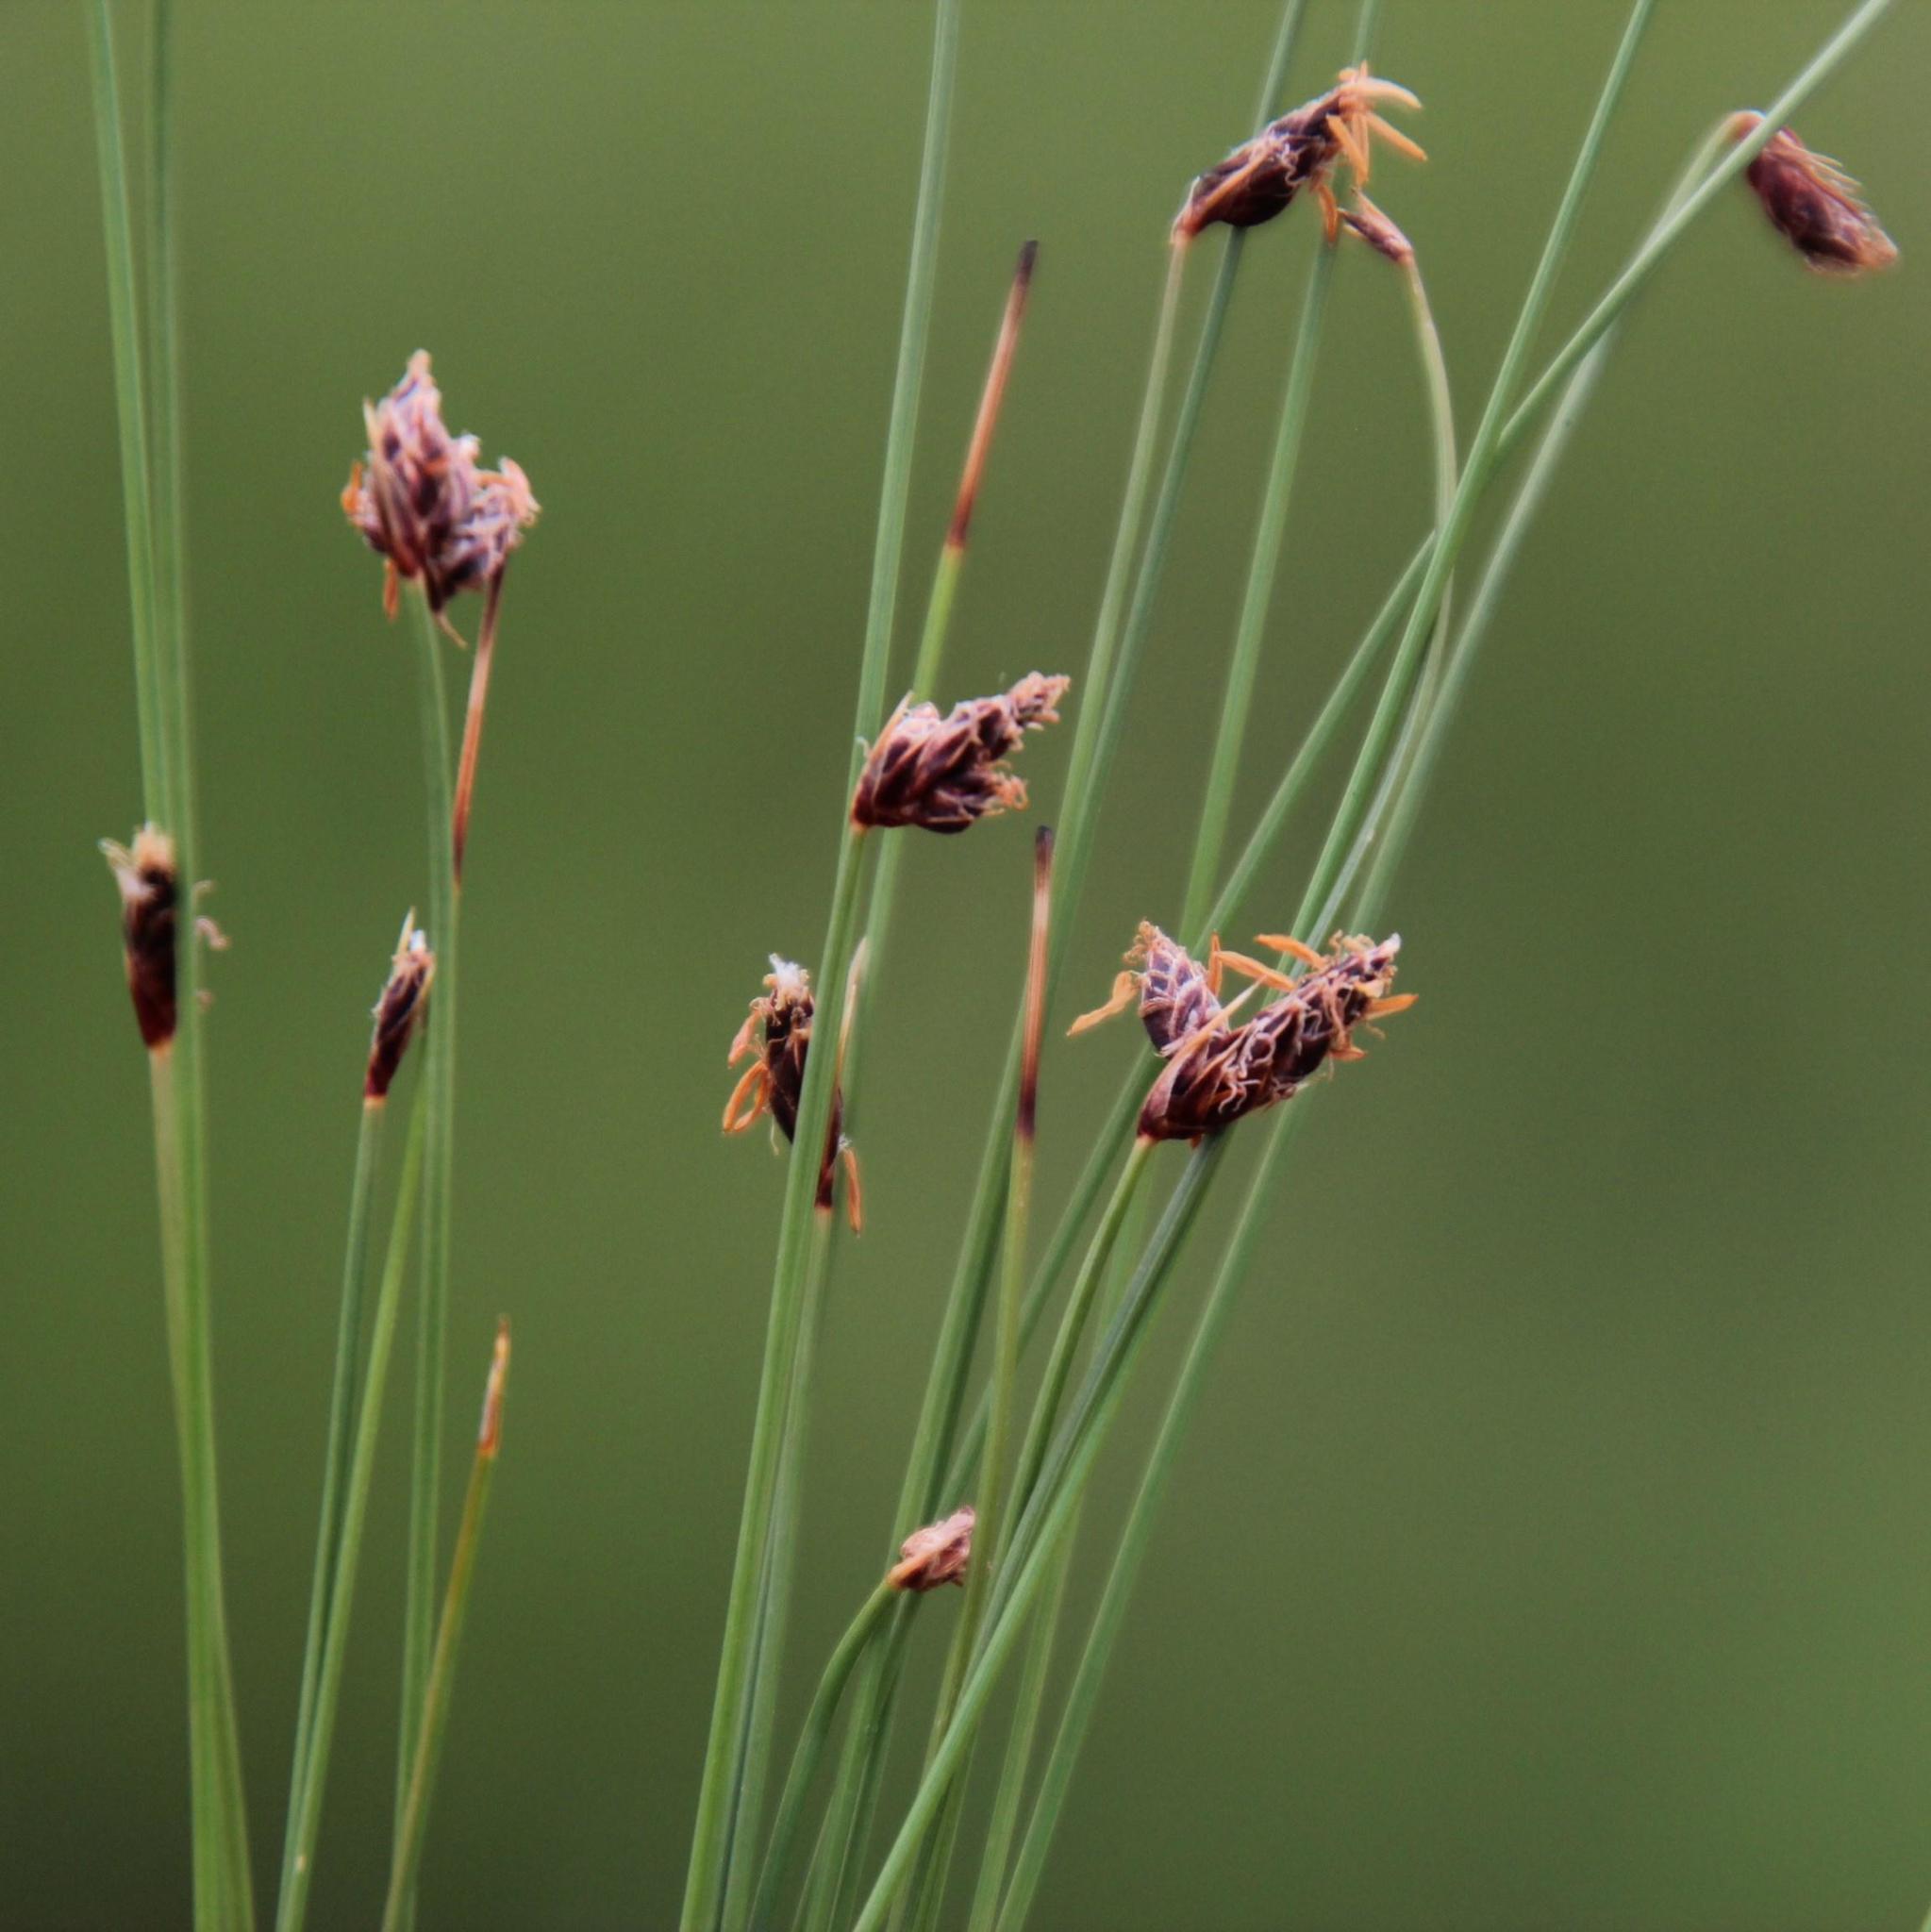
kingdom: Plantae
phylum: Tracheophyta
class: Liliopsida
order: Poales
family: Cyperaceae
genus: Bulbostylis
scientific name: Bulbostylis oritrephes
